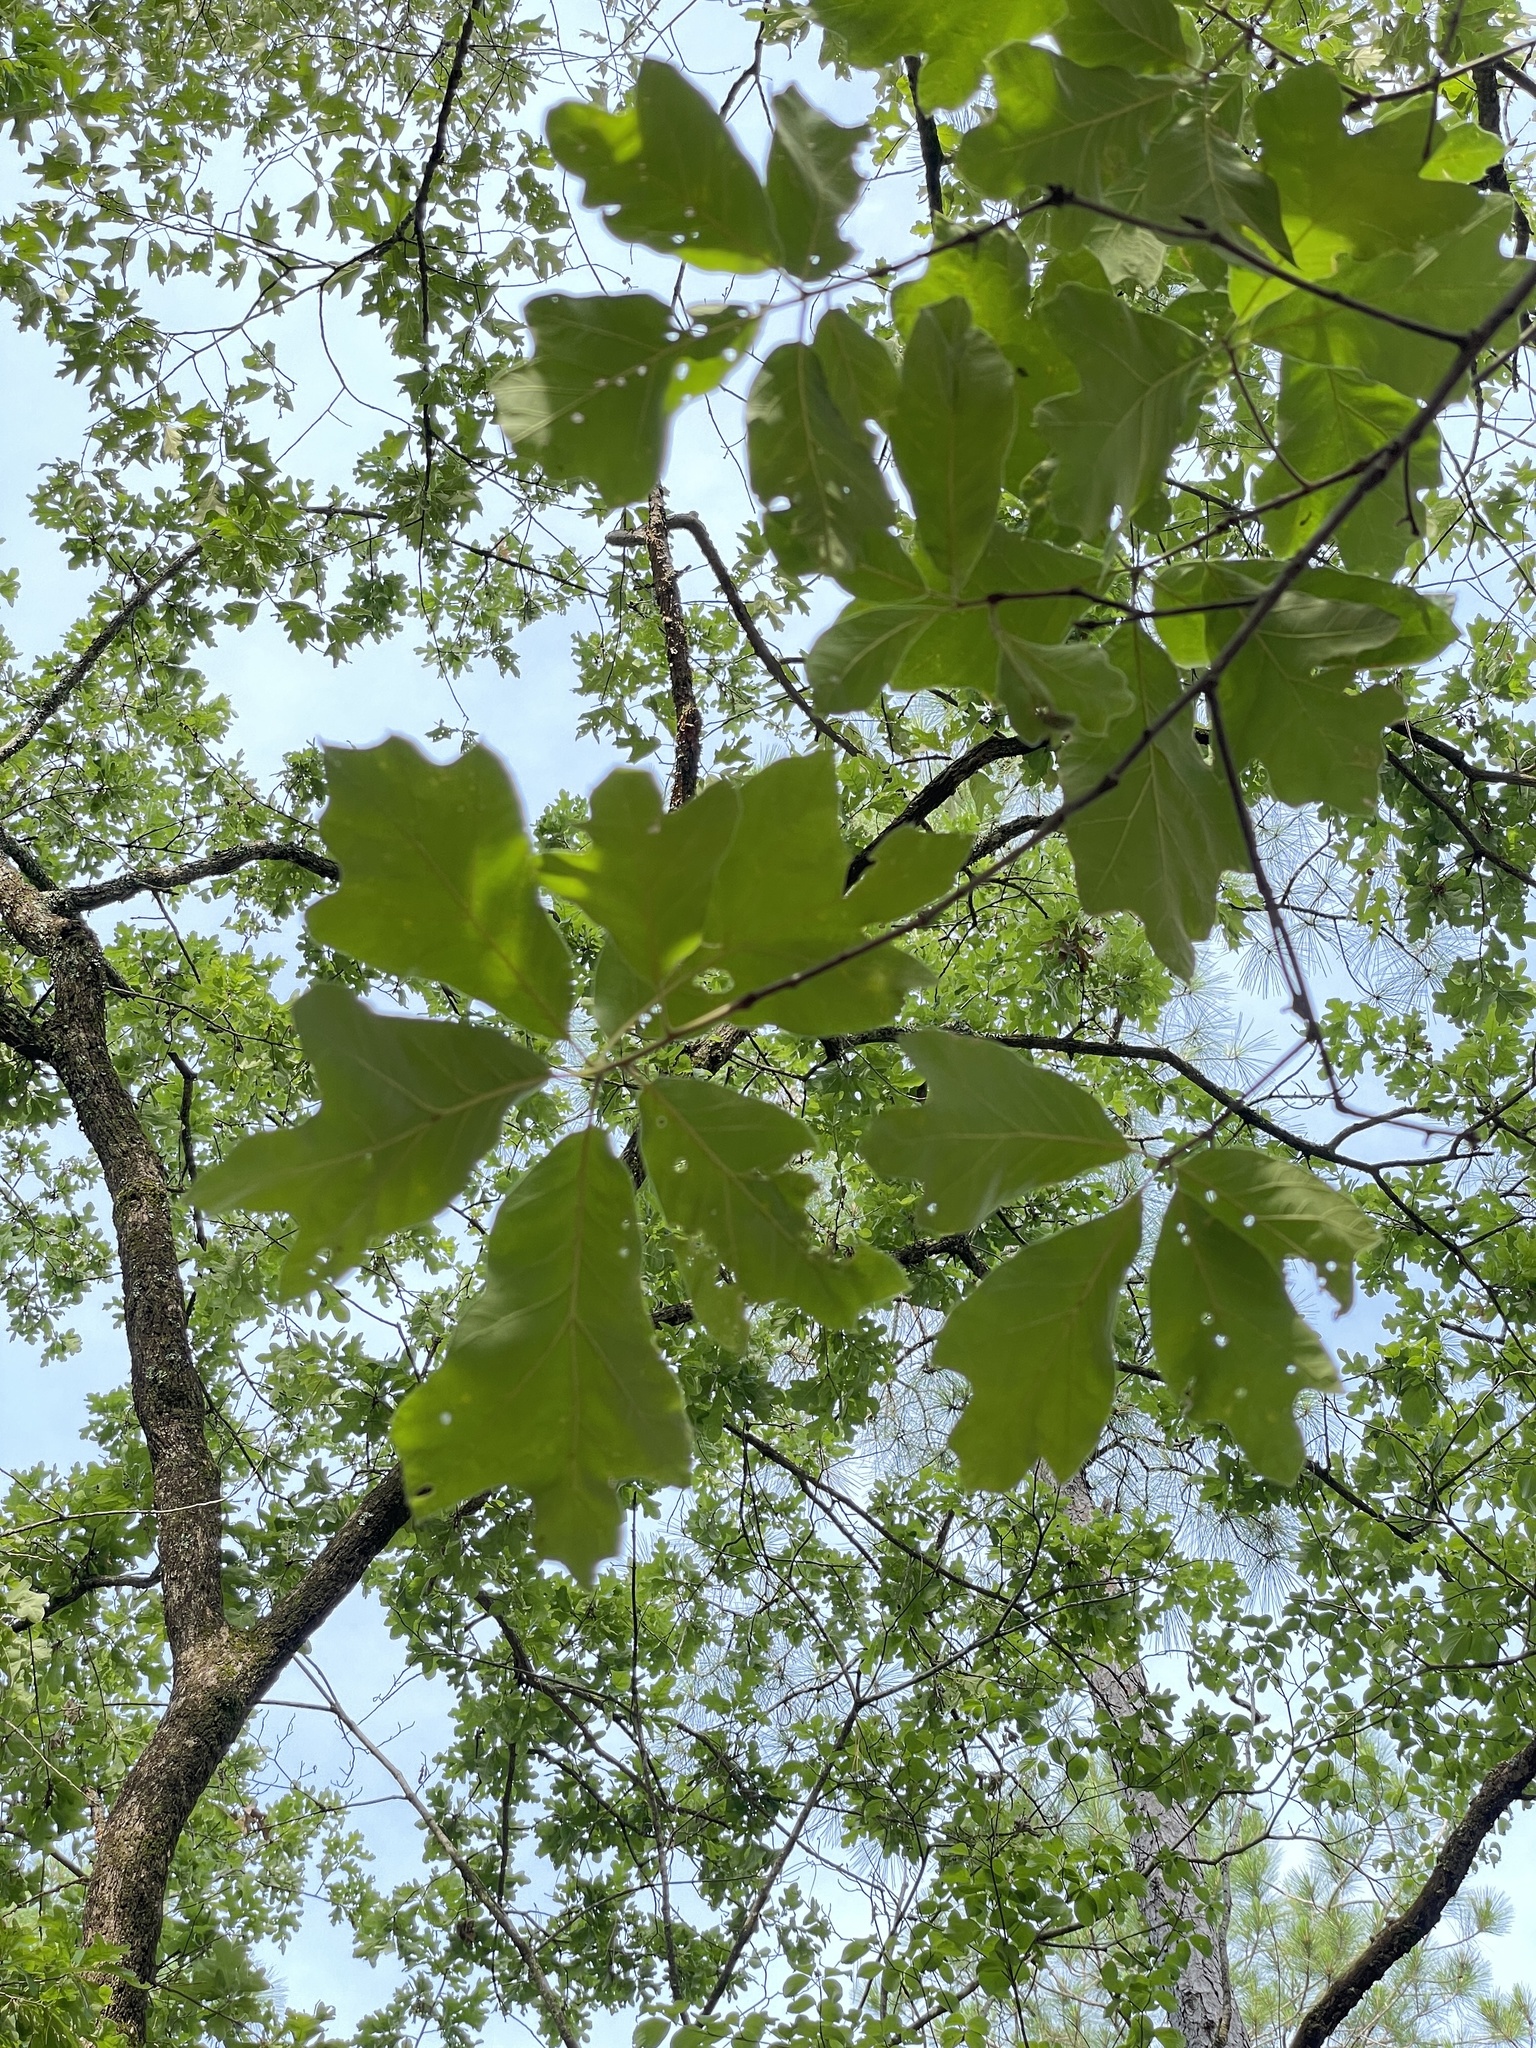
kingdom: Plantae
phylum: Tracheophyta
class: Magnoliopsida
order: Fagales
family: Fagaceae
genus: Quercus
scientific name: Quercus falcata
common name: Southern red oak
